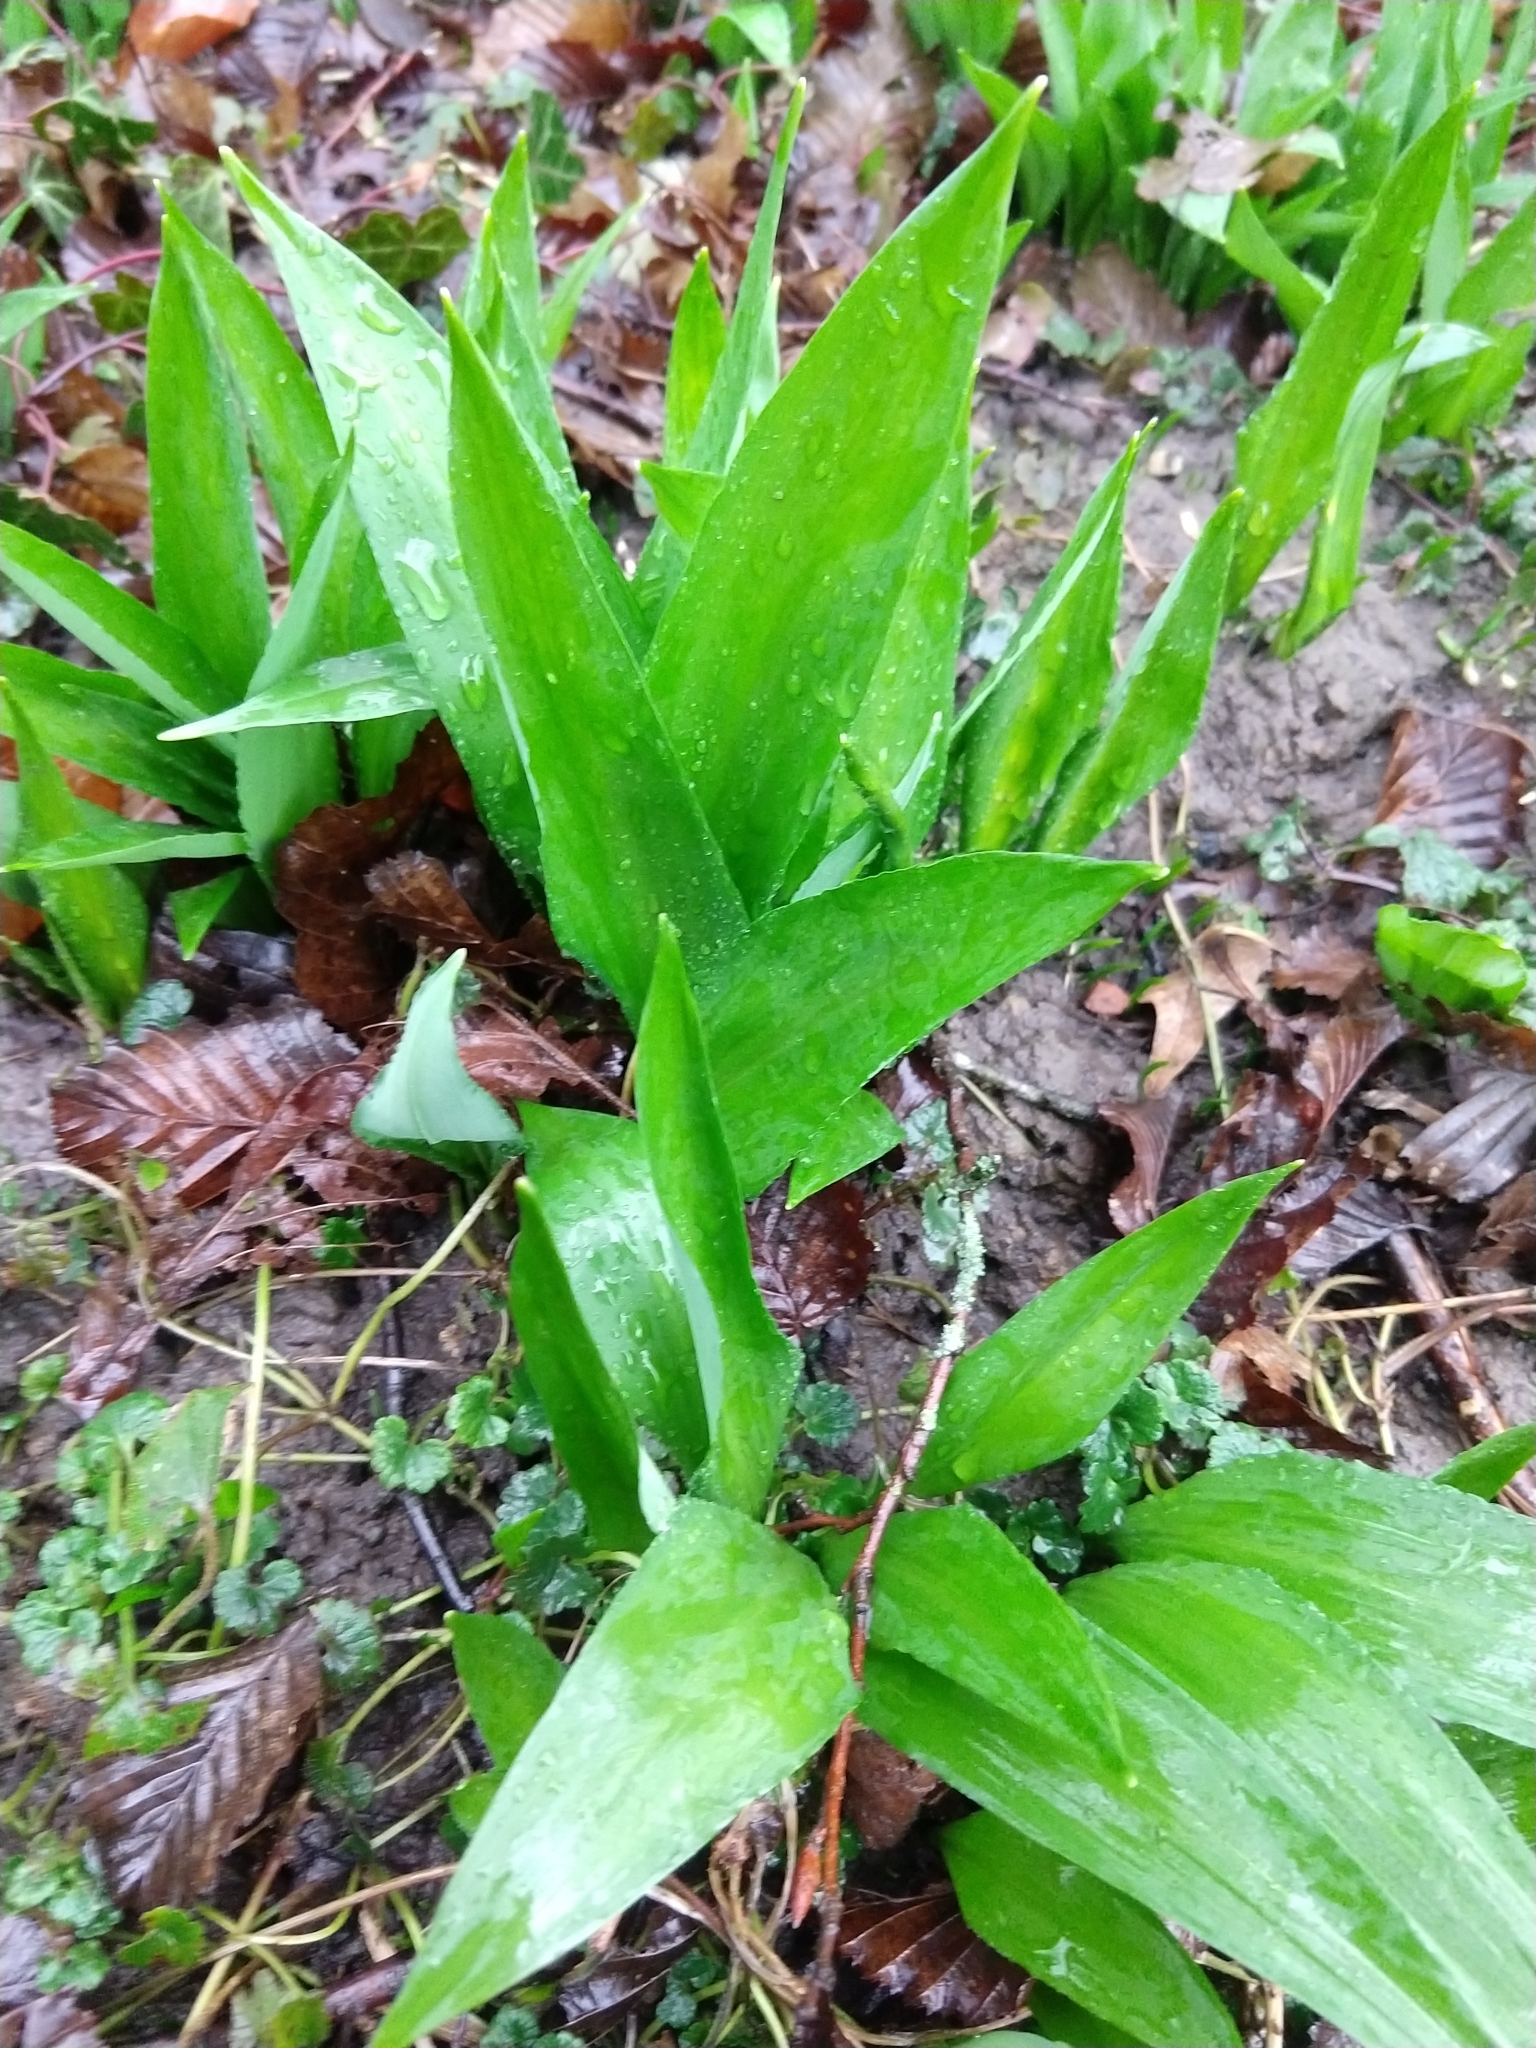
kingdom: Plantae
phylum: Tracheophyta
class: Liliopsida
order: Asparagales
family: Amaryllidaceae
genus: Allium
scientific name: Allium ursinum
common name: Ramsons
